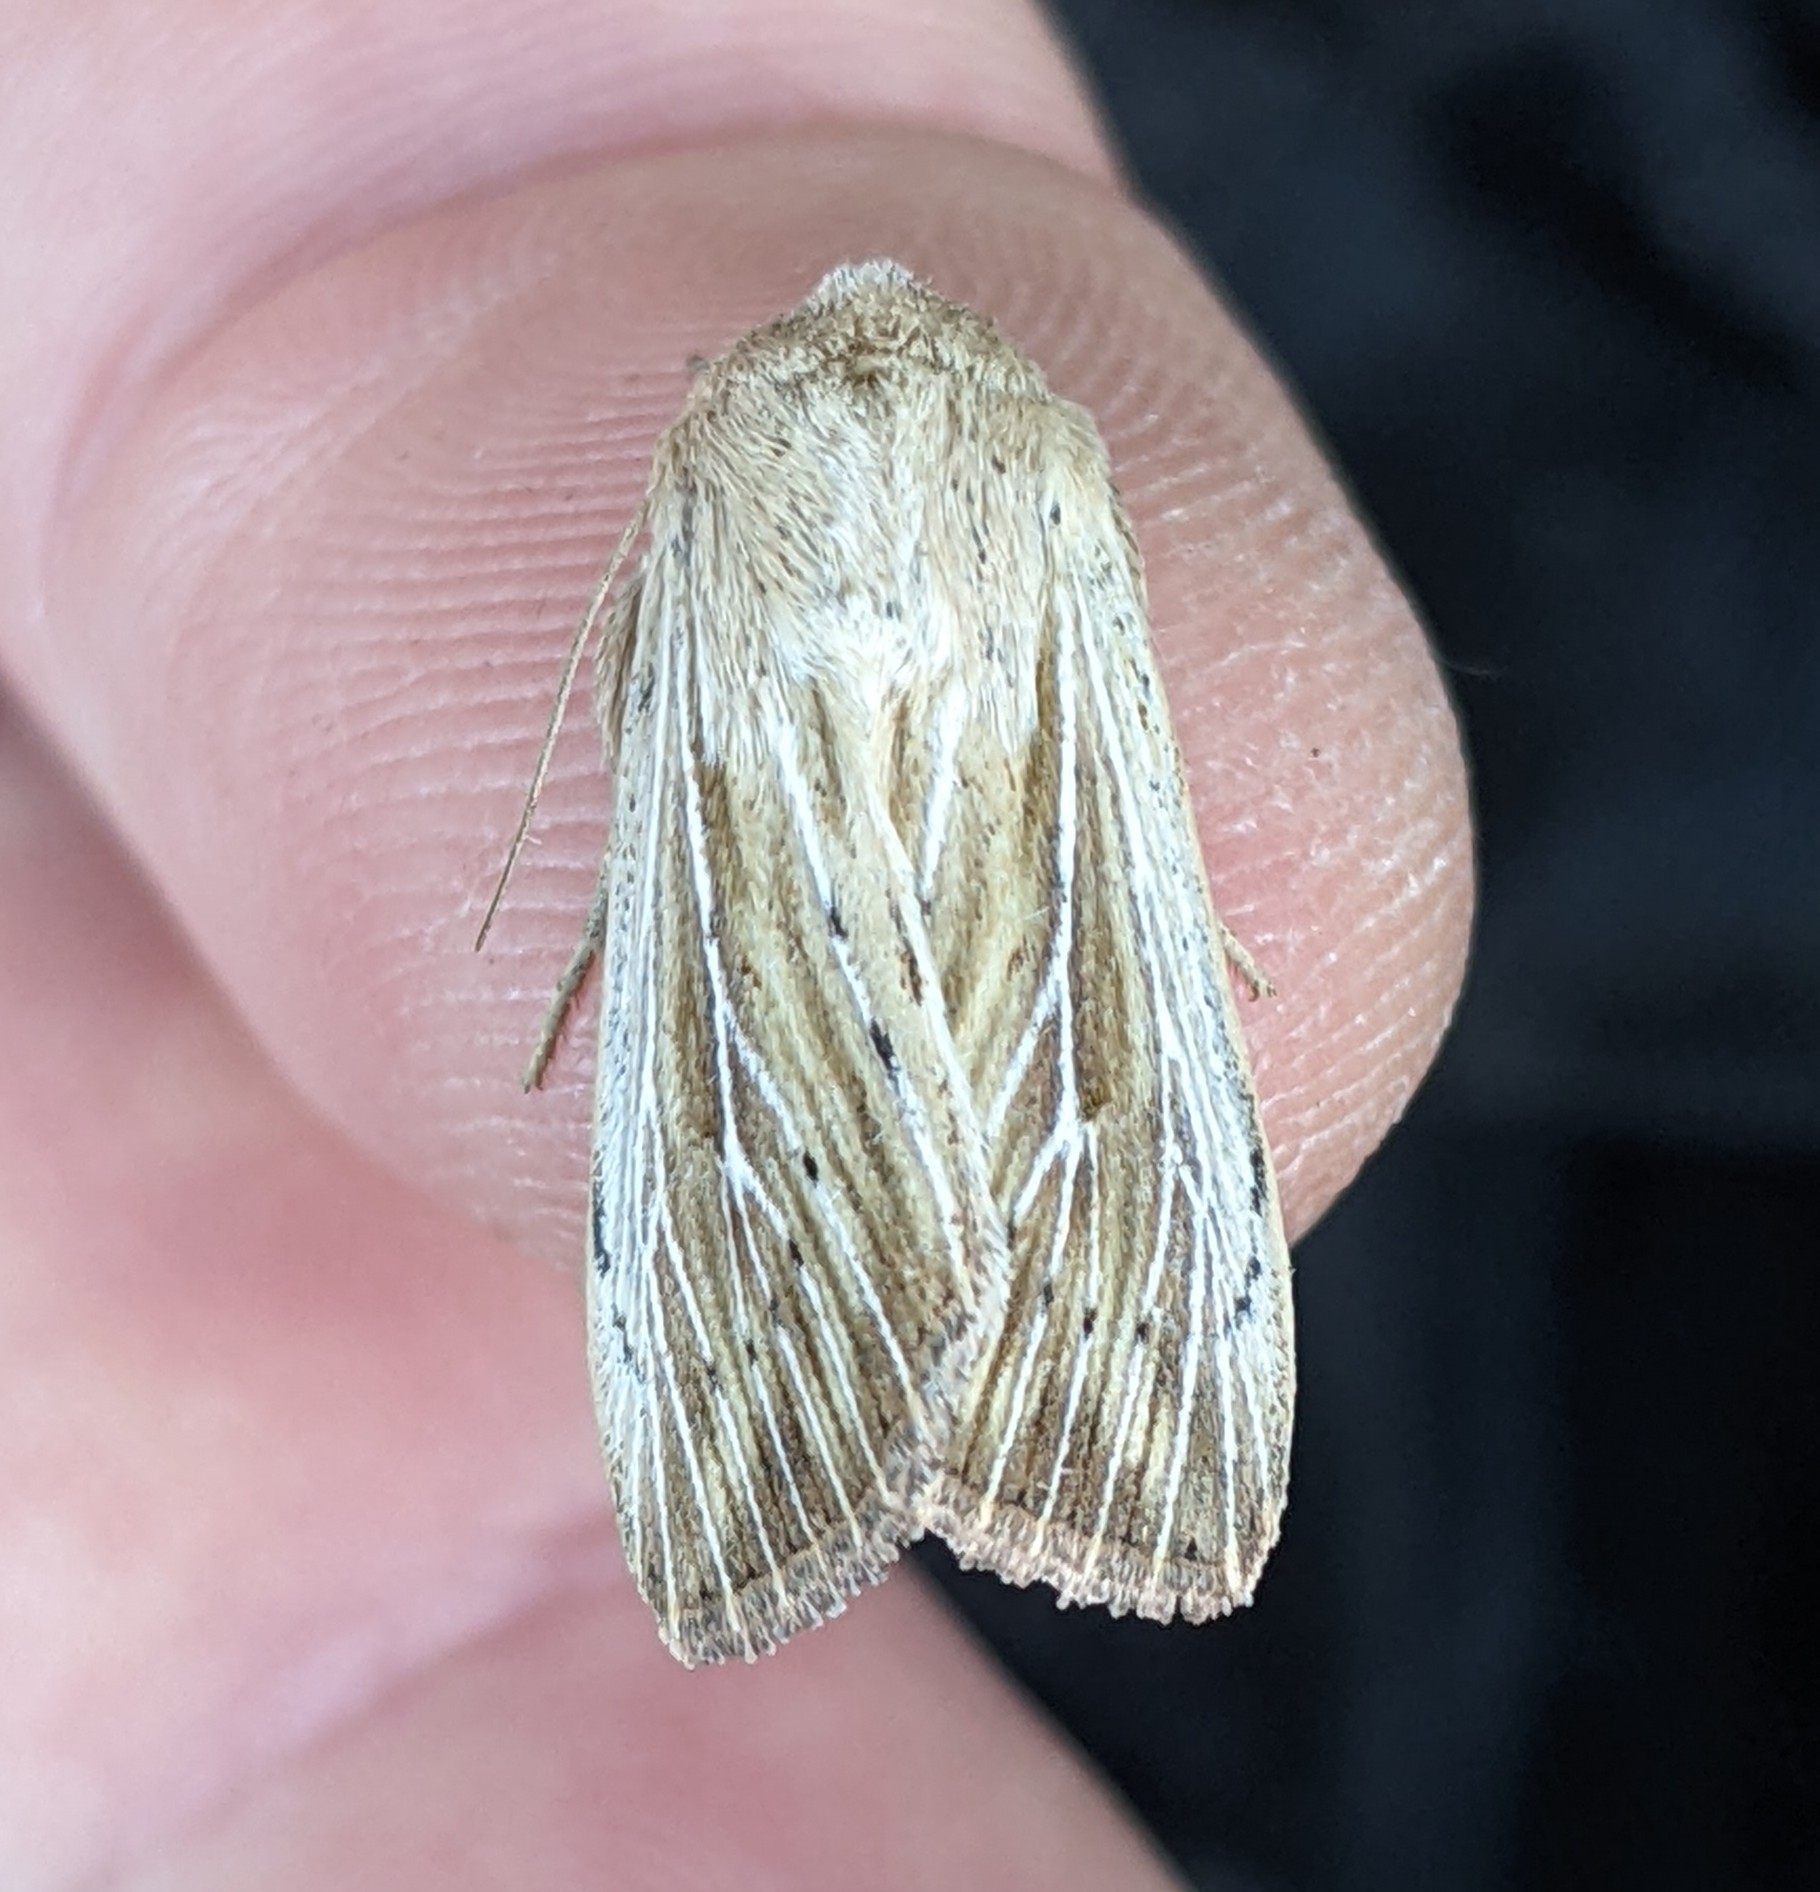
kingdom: Animalia
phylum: Arthropoda
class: Insecta
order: Lepidoptera
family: Noctuidae
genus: Leucania
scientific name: Leucania insueta
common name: Heterodox wainscot moth
